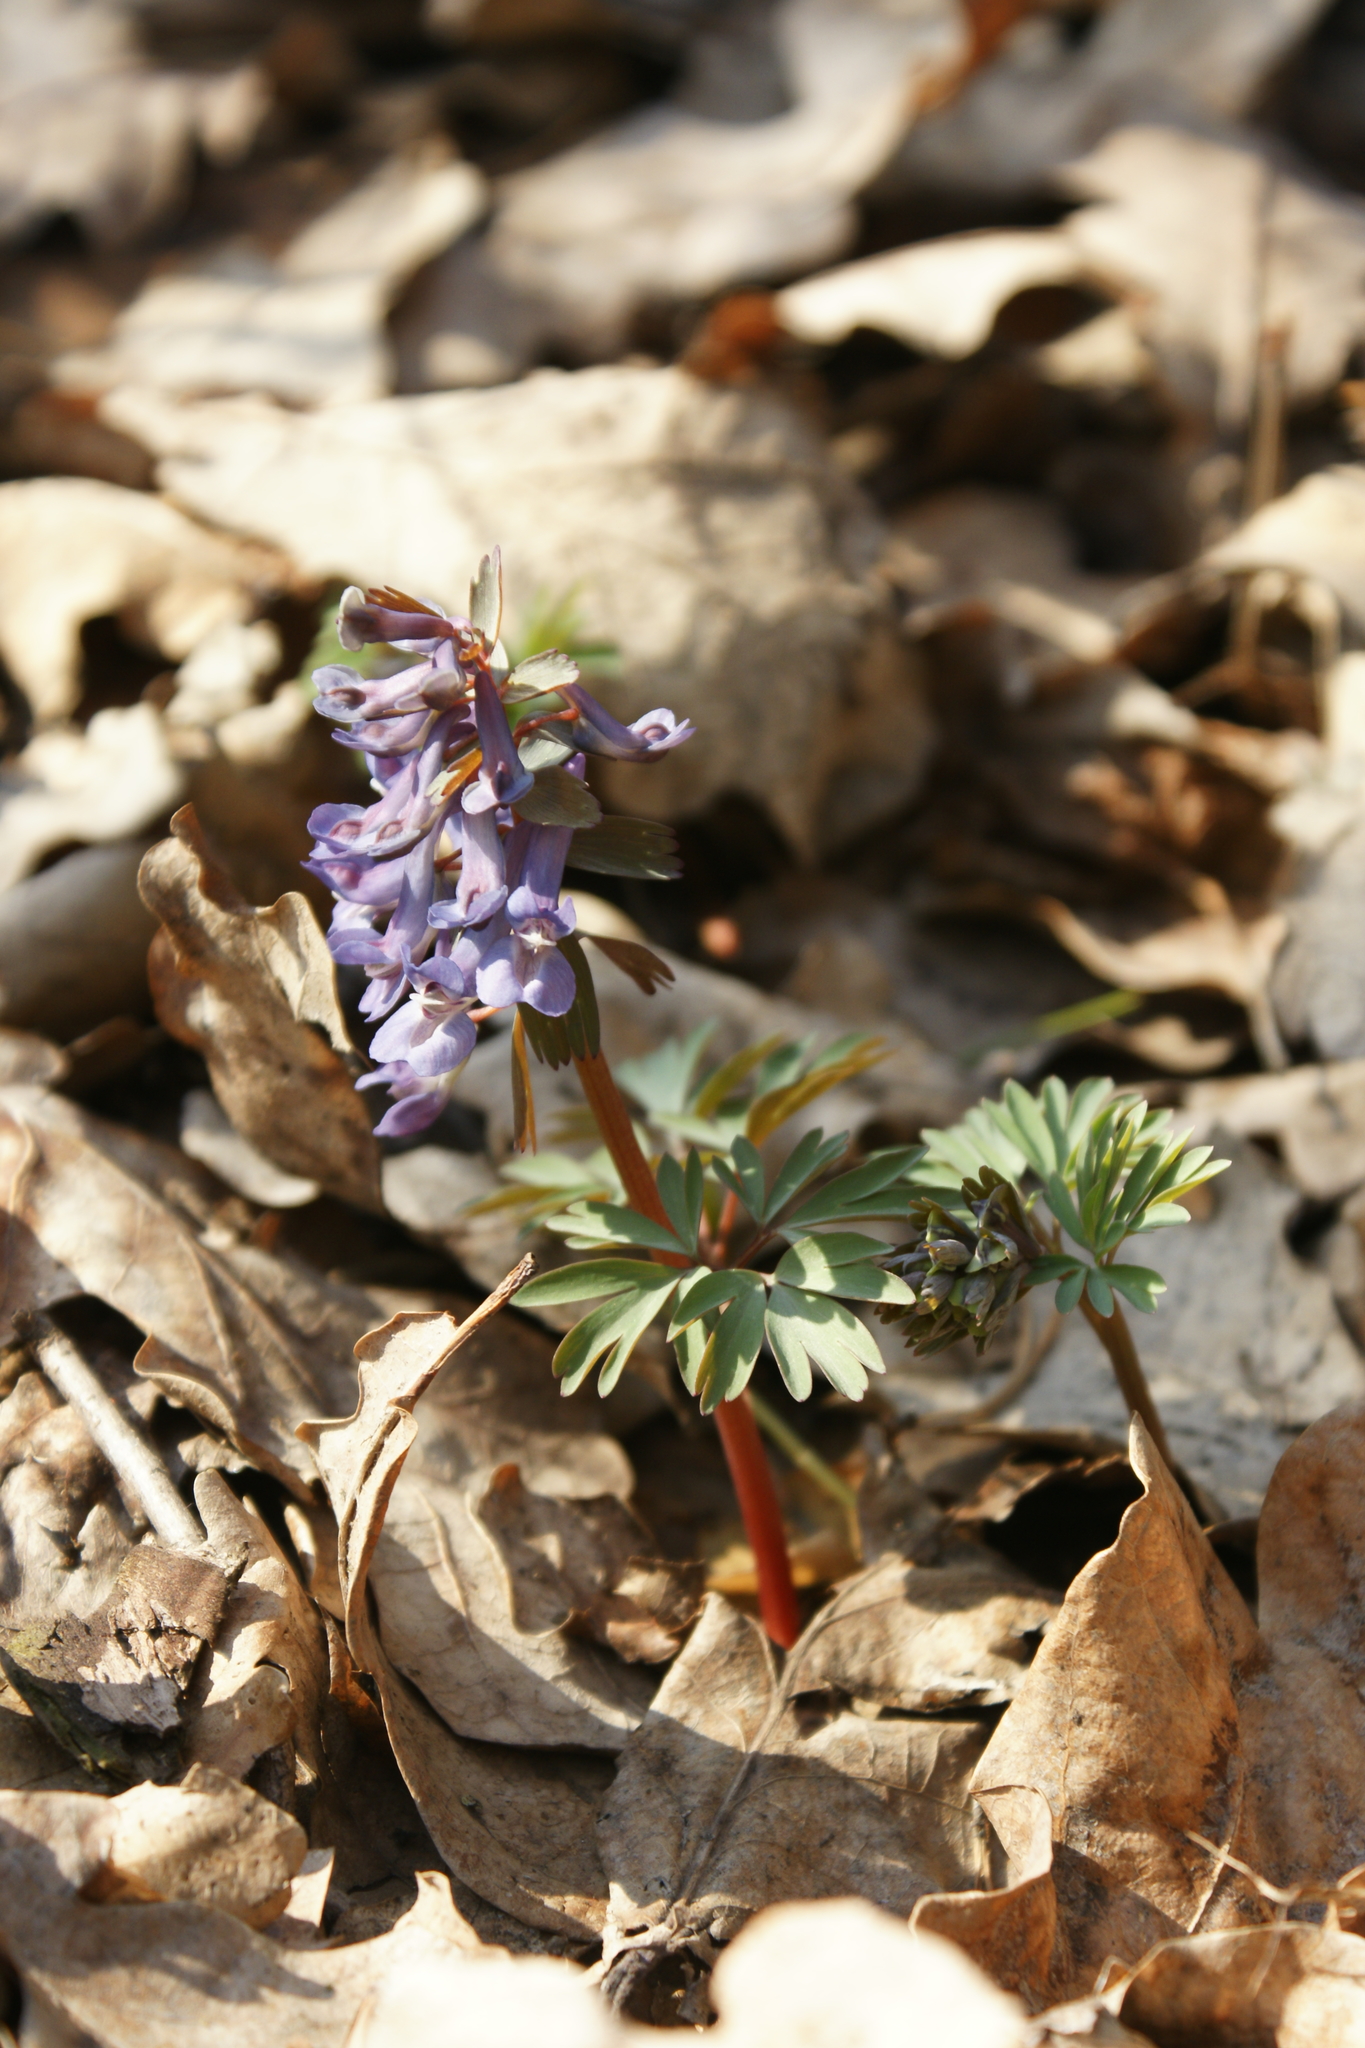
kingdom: Plantae
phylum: Tracheophyta
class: Magnoliopsida
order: Ranunculales
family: Papaveraceae
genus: Corydalis
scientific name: Corydalis solida
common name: Bird-in-a-bush
